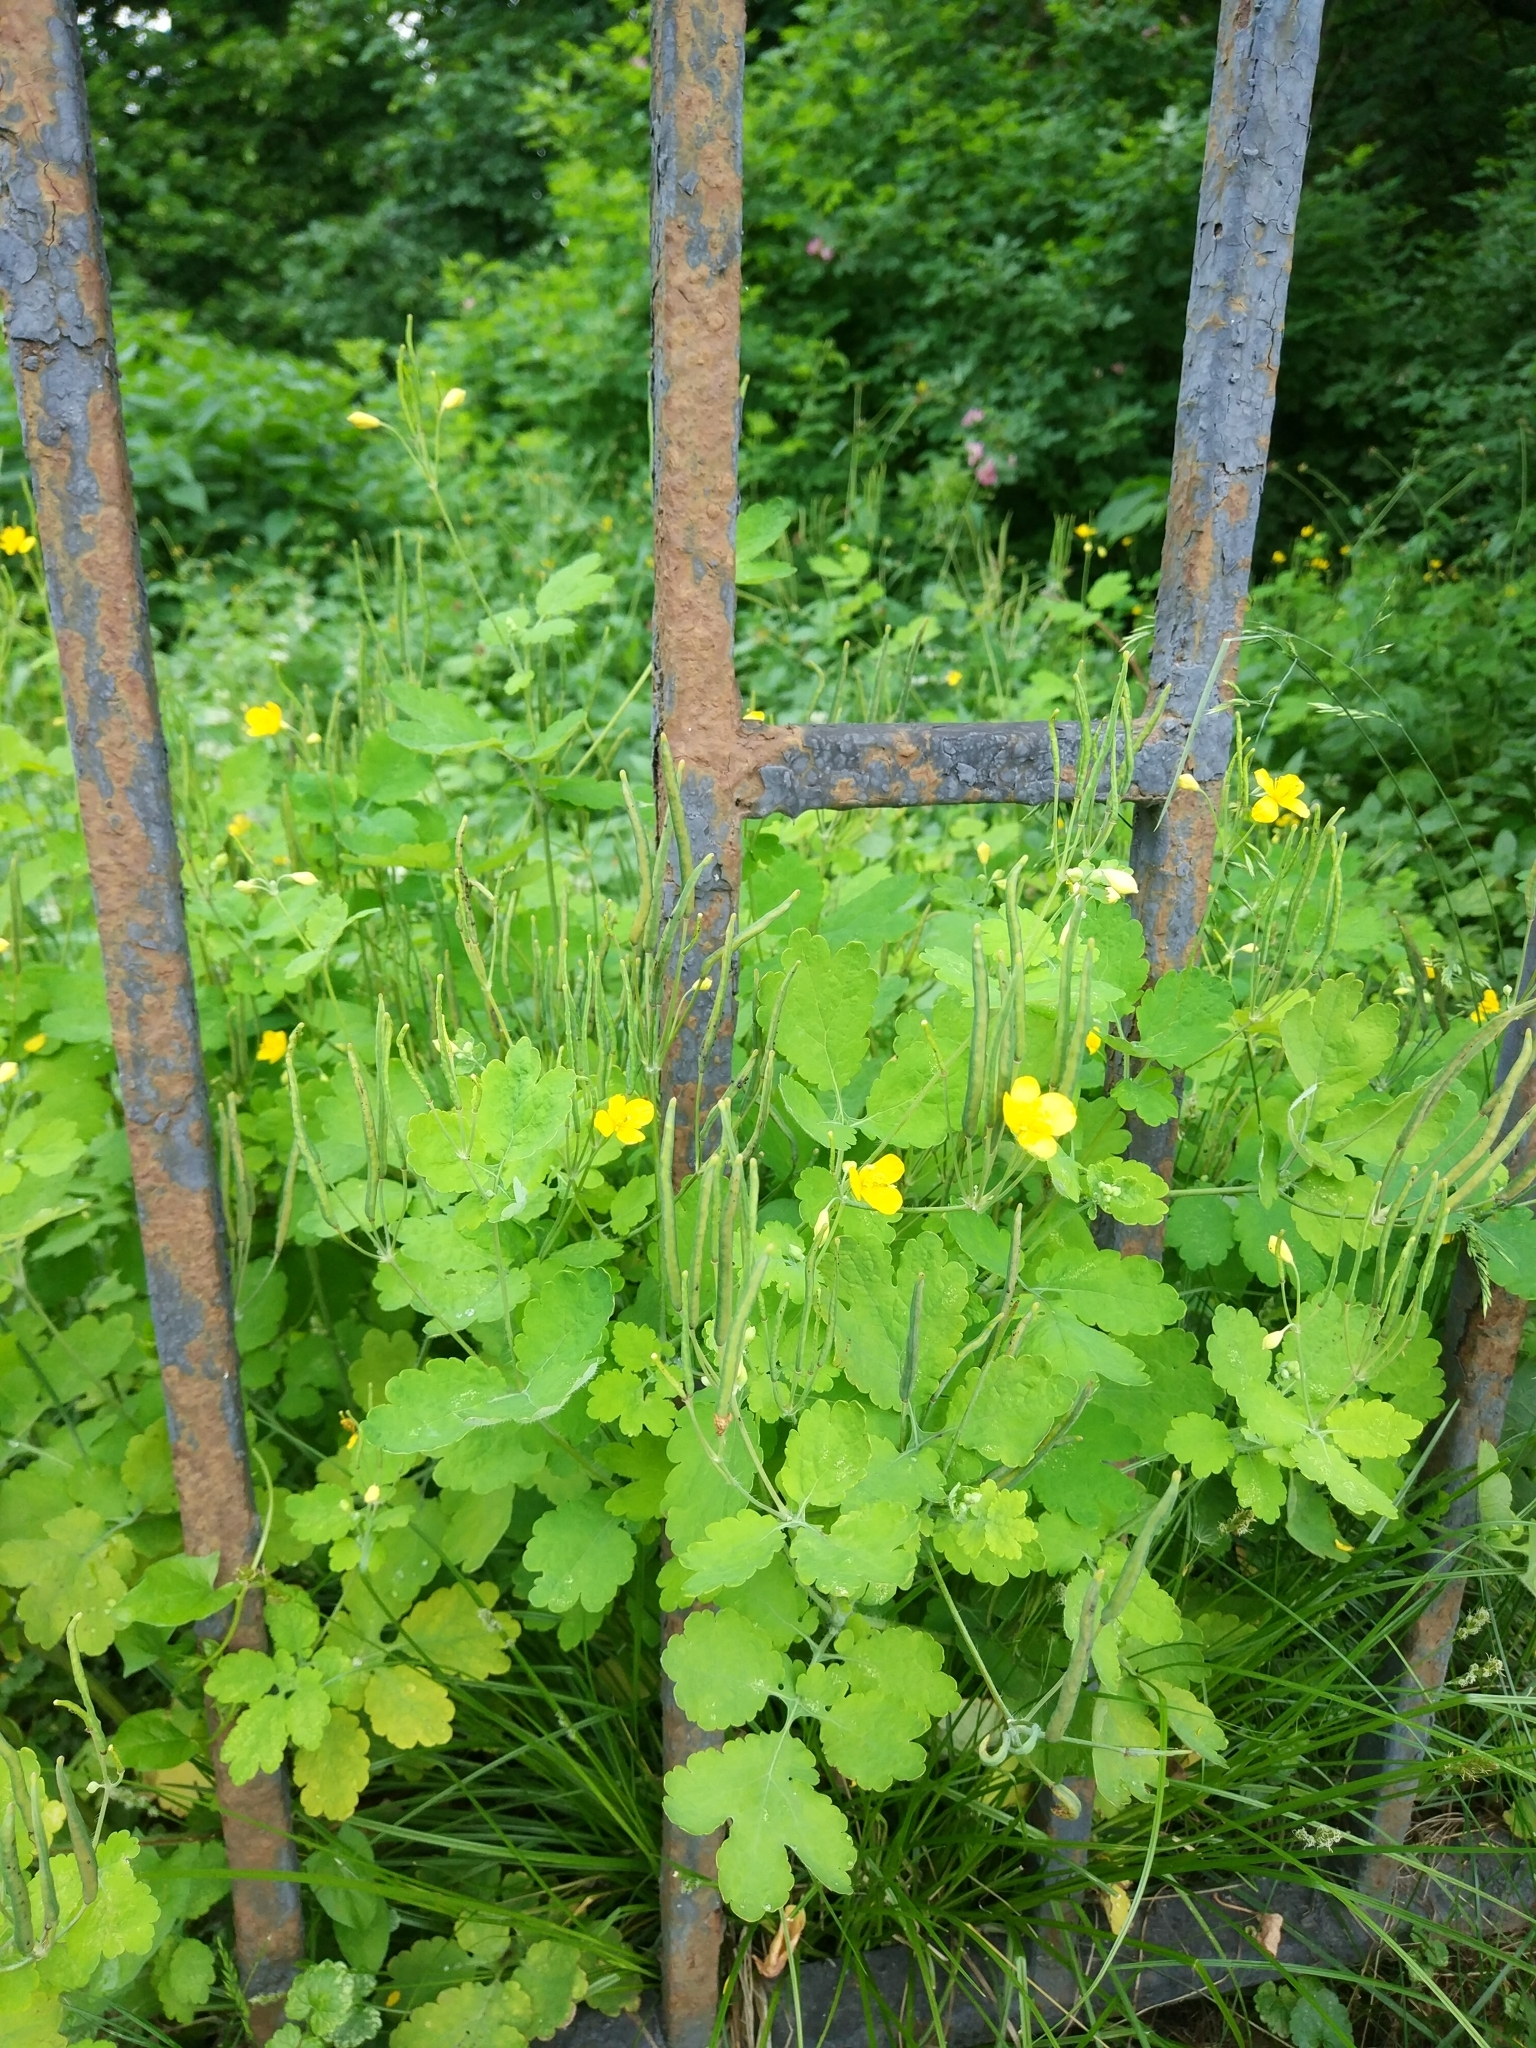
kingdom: Plantae
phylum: Tracheophyta
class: Magnoliopsida
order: Ranunculales
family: Papaveraceae
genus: Chelidonium
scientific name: Chelidonium majus
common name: Greater celandine
